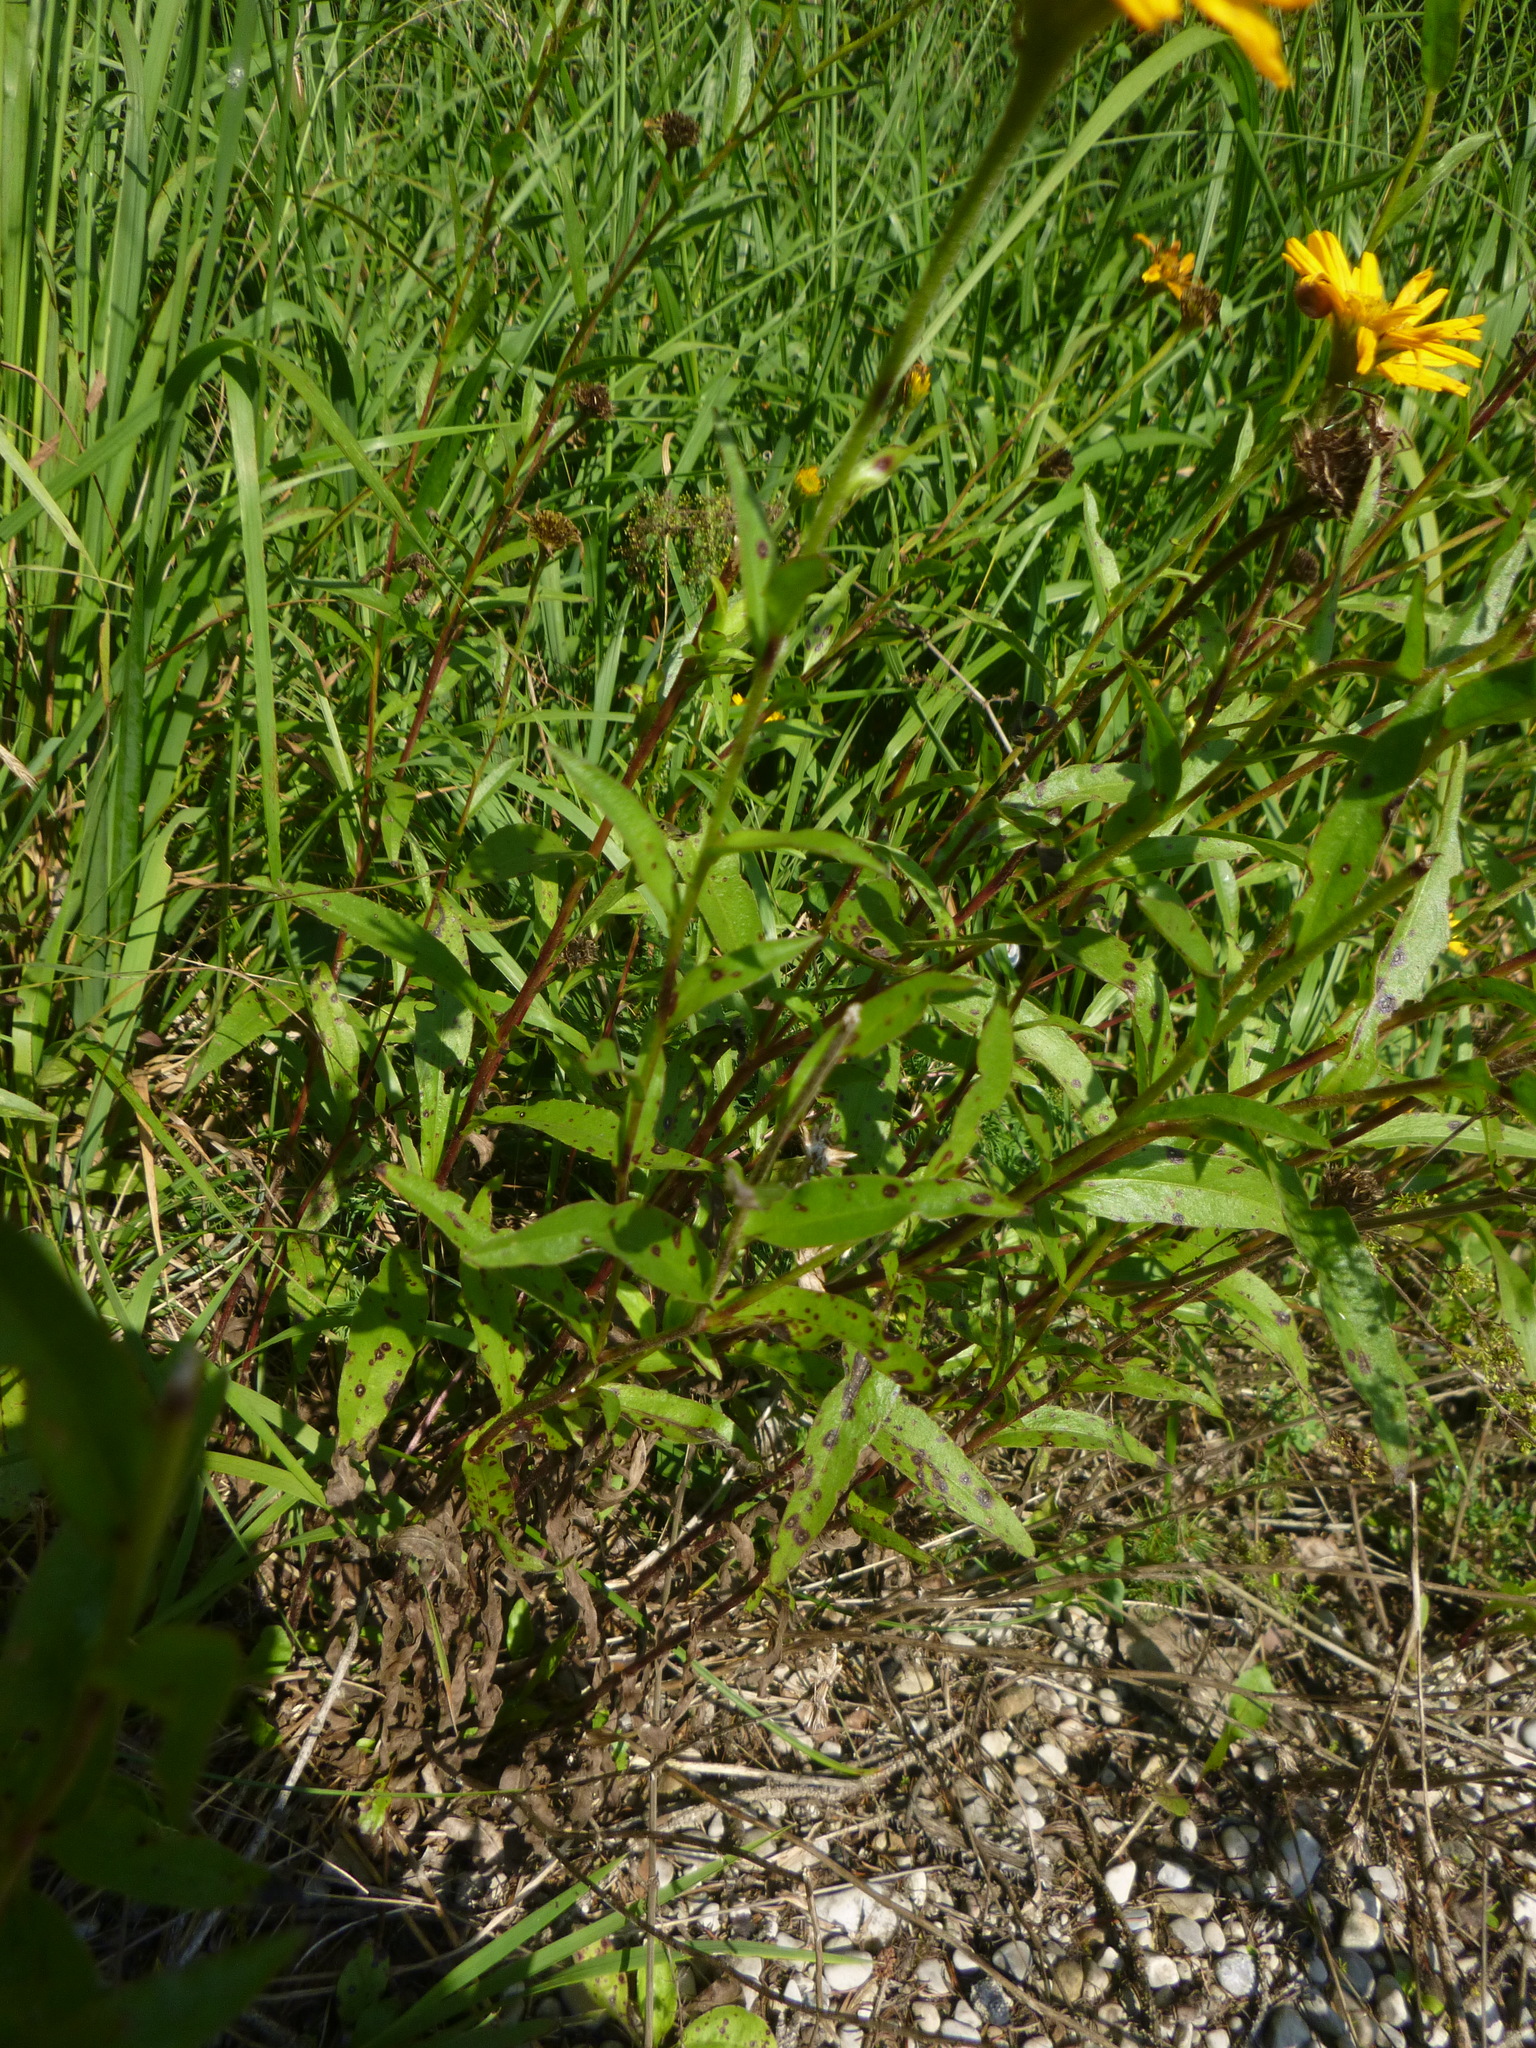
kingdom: Plantae
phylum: Tracheophyta
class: Magnoliopsida
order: Asterales
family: Asteraceae
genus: Buphthalmum
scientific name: Buphthalmum salicifolium
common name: Willow-leaved yellow-oxeye
